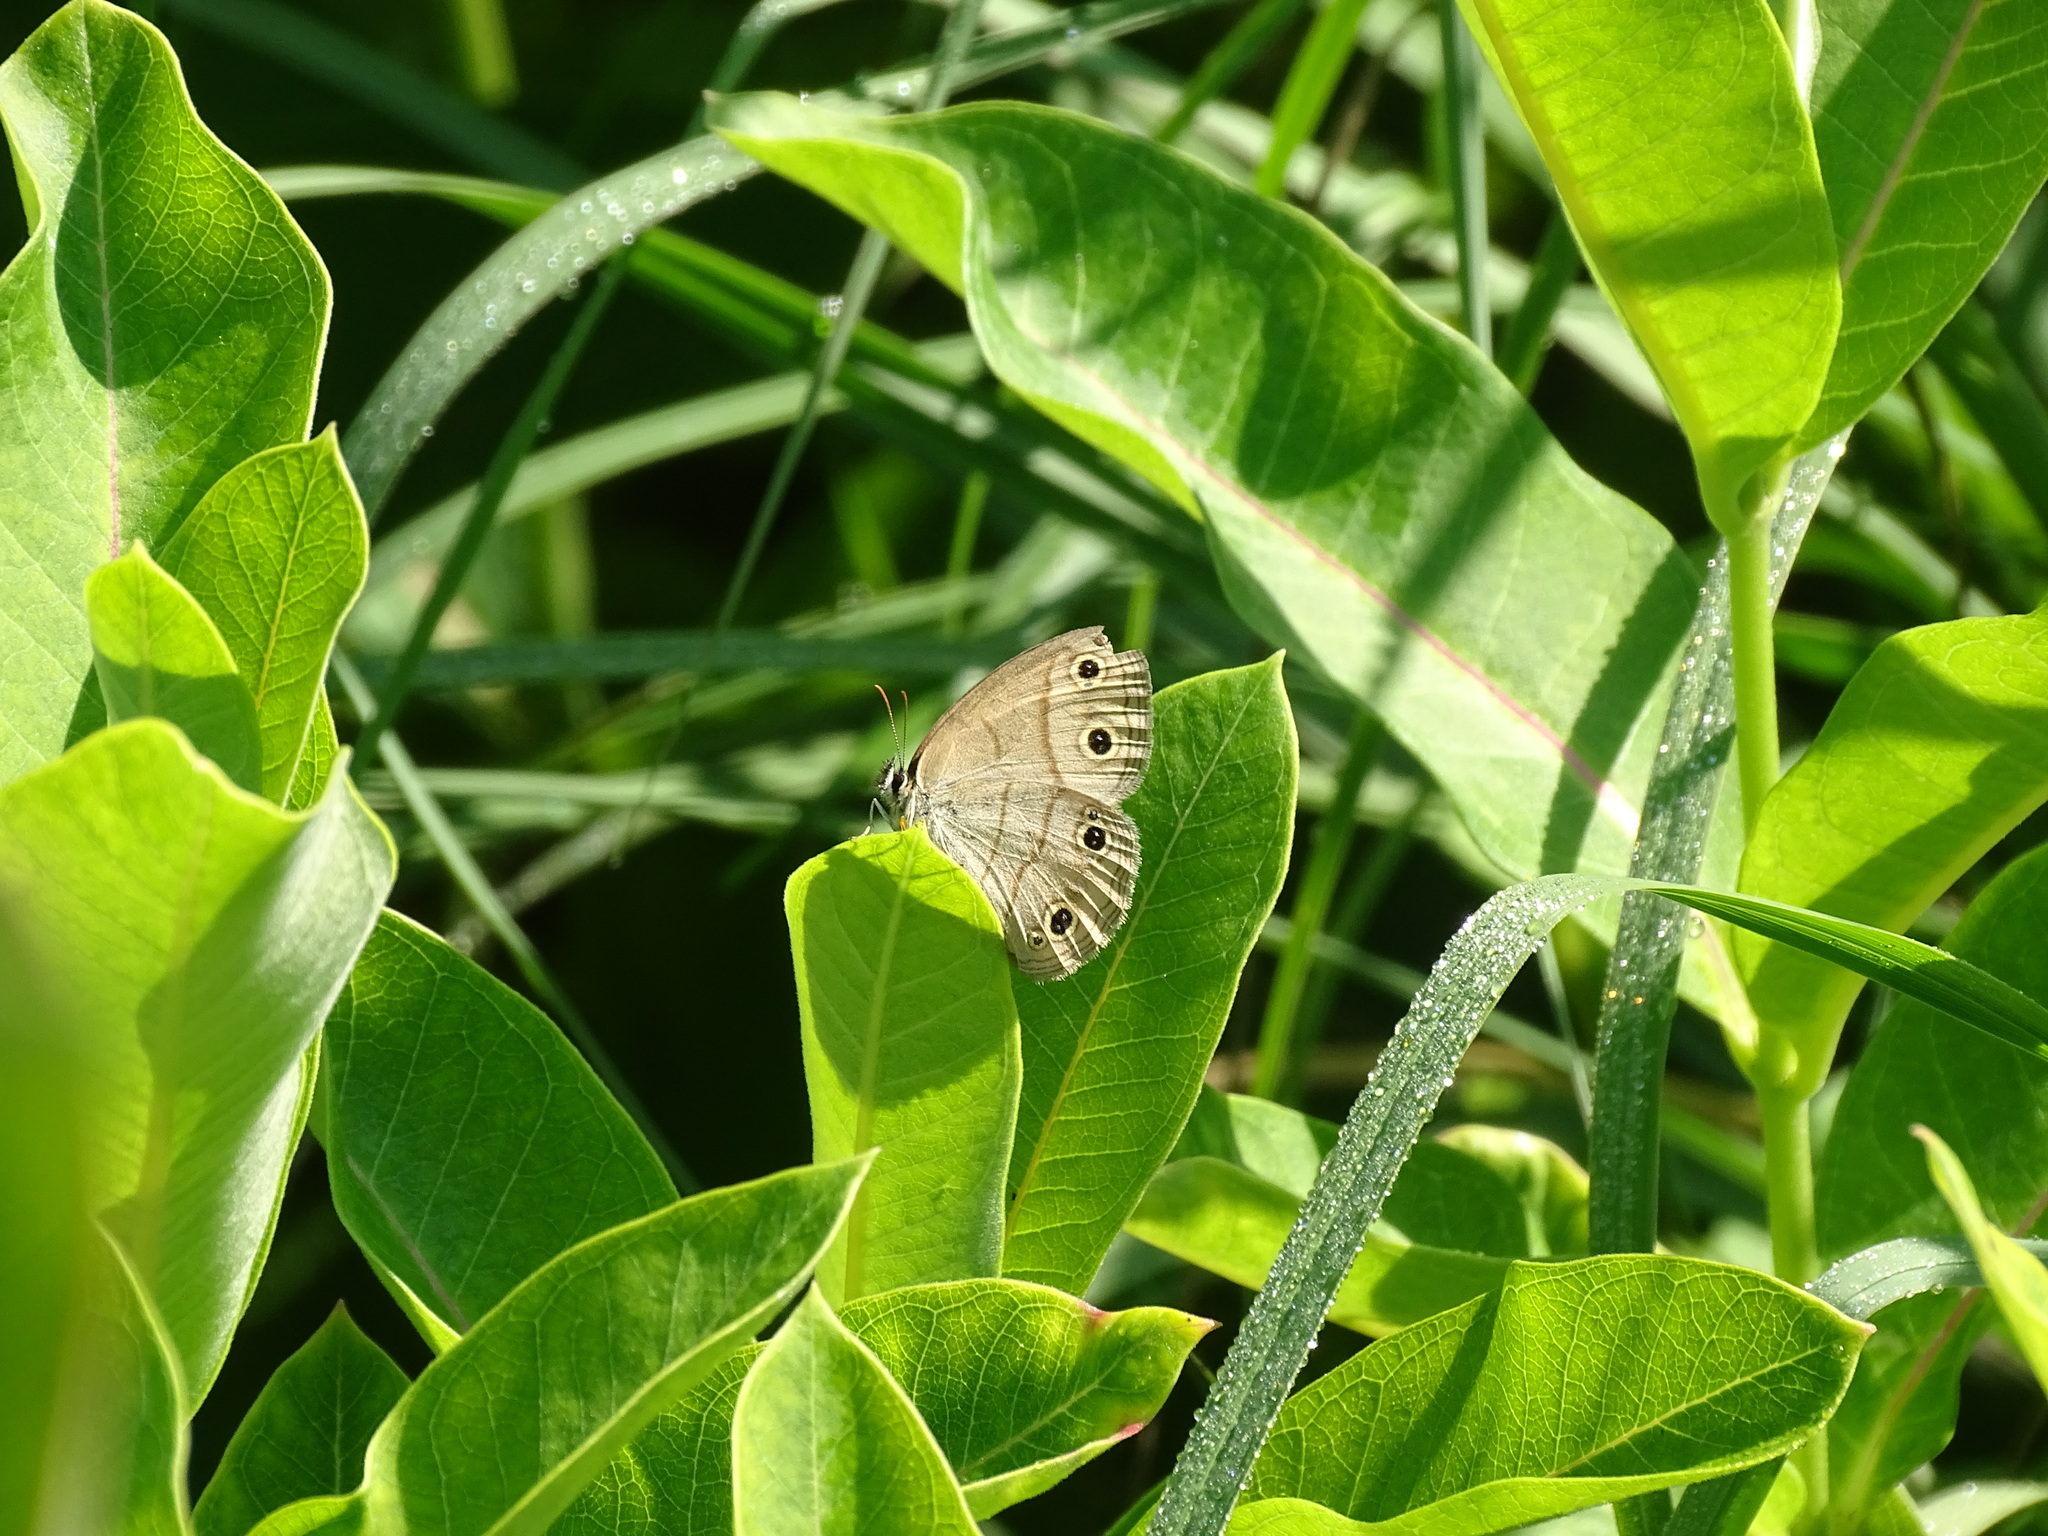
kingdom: Animalia
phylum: Arthropoda
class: Insecta
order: Lepidoptera
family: Nymphalidae
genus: Euptychia
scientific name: Euptychia cymela
